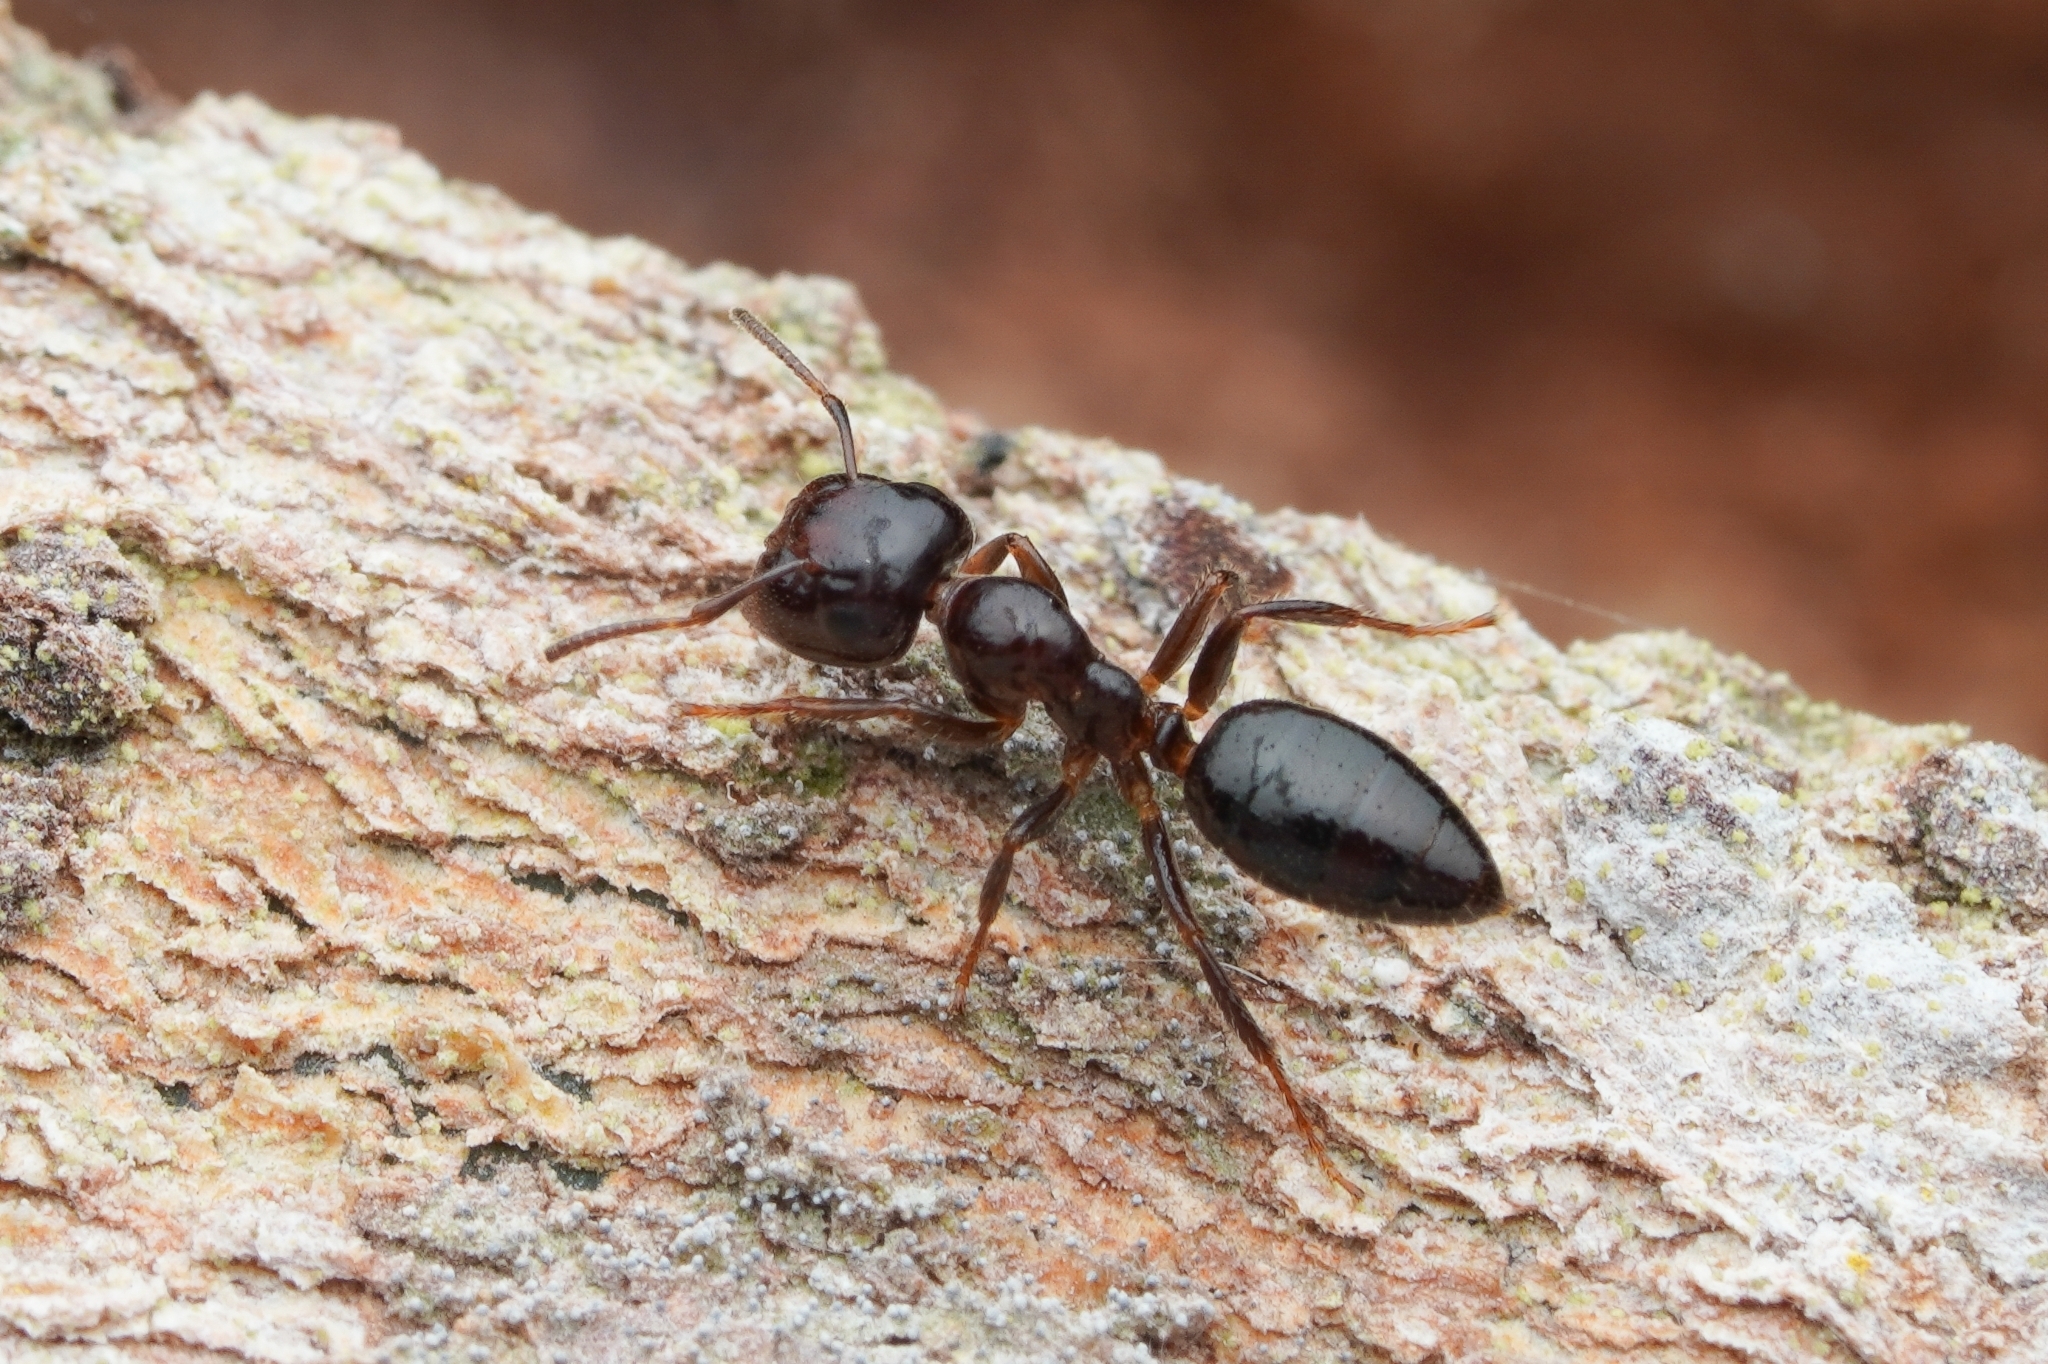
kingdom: Animalia
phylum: Arthropoda
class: Insecta
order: Hymenoptera
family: Formicidae
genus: Camponotus
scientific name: Camponotus vitreus
